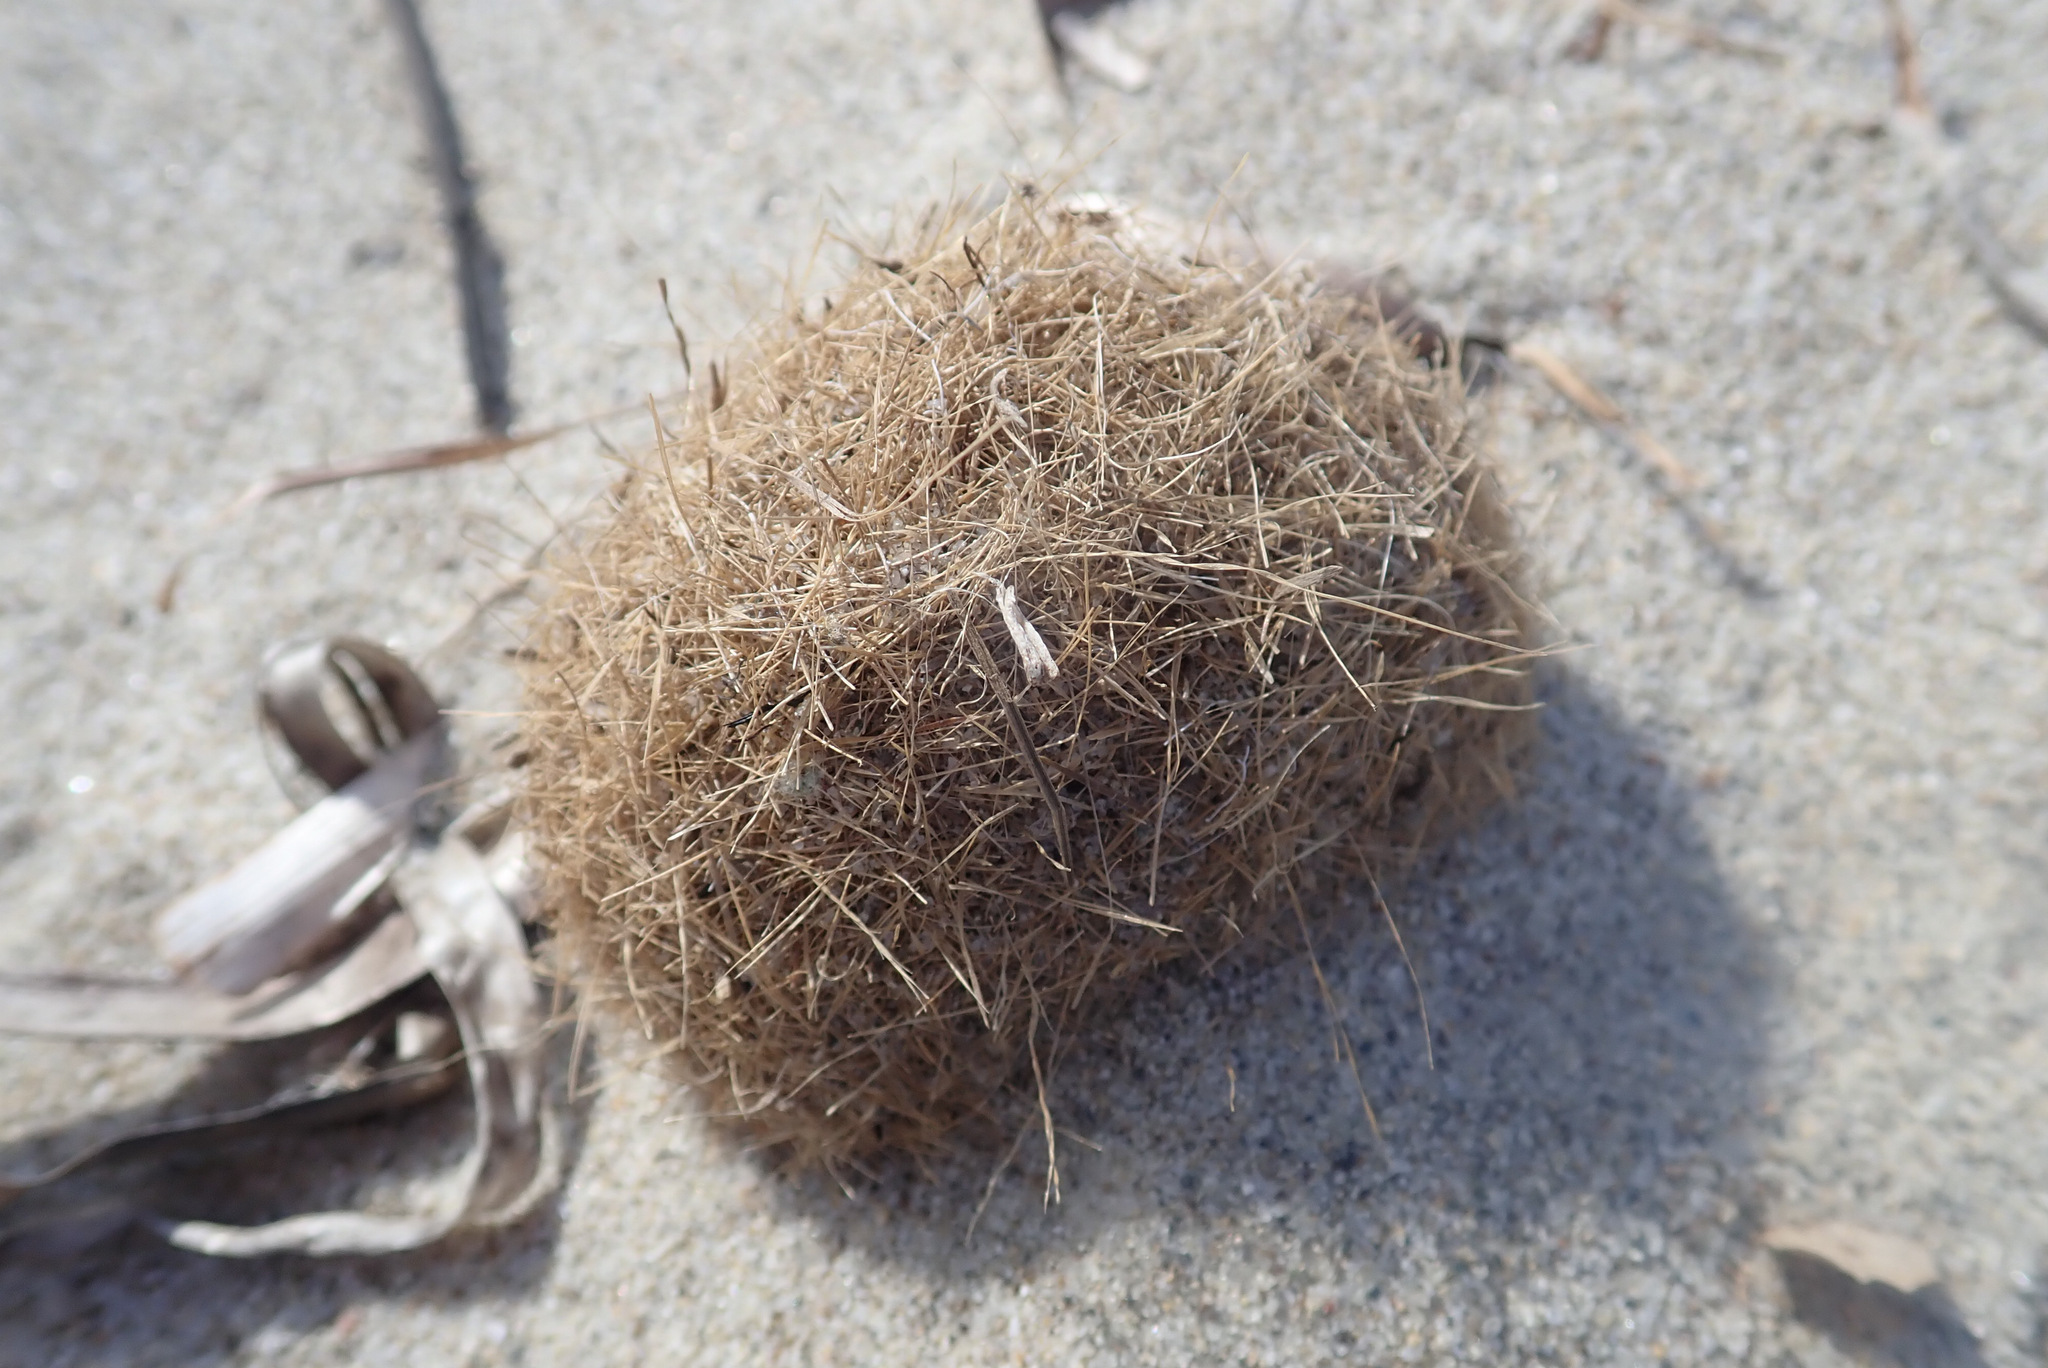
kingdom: Plantae
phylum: Tracheophyta
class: Liliopsida
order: Alismatales
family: Posidoniaceae
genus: Posidonia
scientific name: Posidonia oceanica
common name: Mediterranean tapeweed
